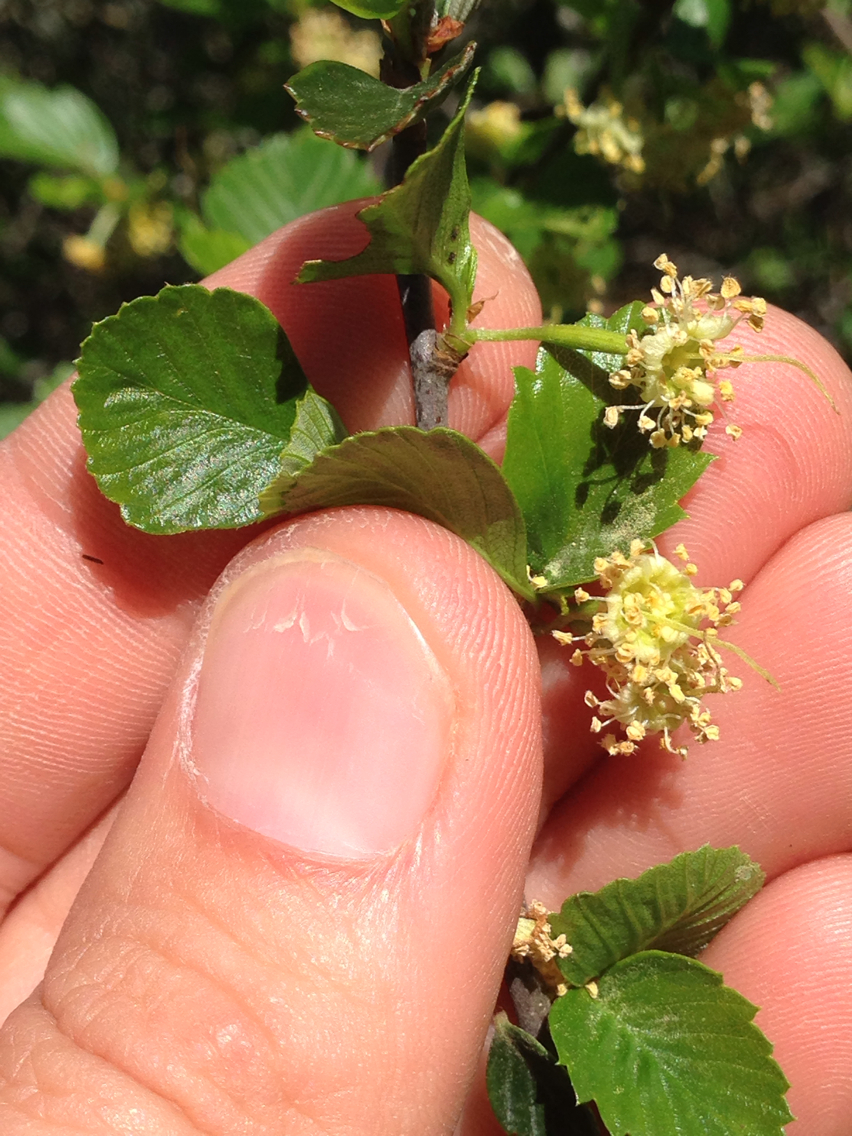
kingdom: Plantae
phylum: Tracheophyta
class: Magnoliopsida
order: Rosales
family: Rosaceae
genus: Cercocarpus
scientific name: Cercocarpus betuloides
